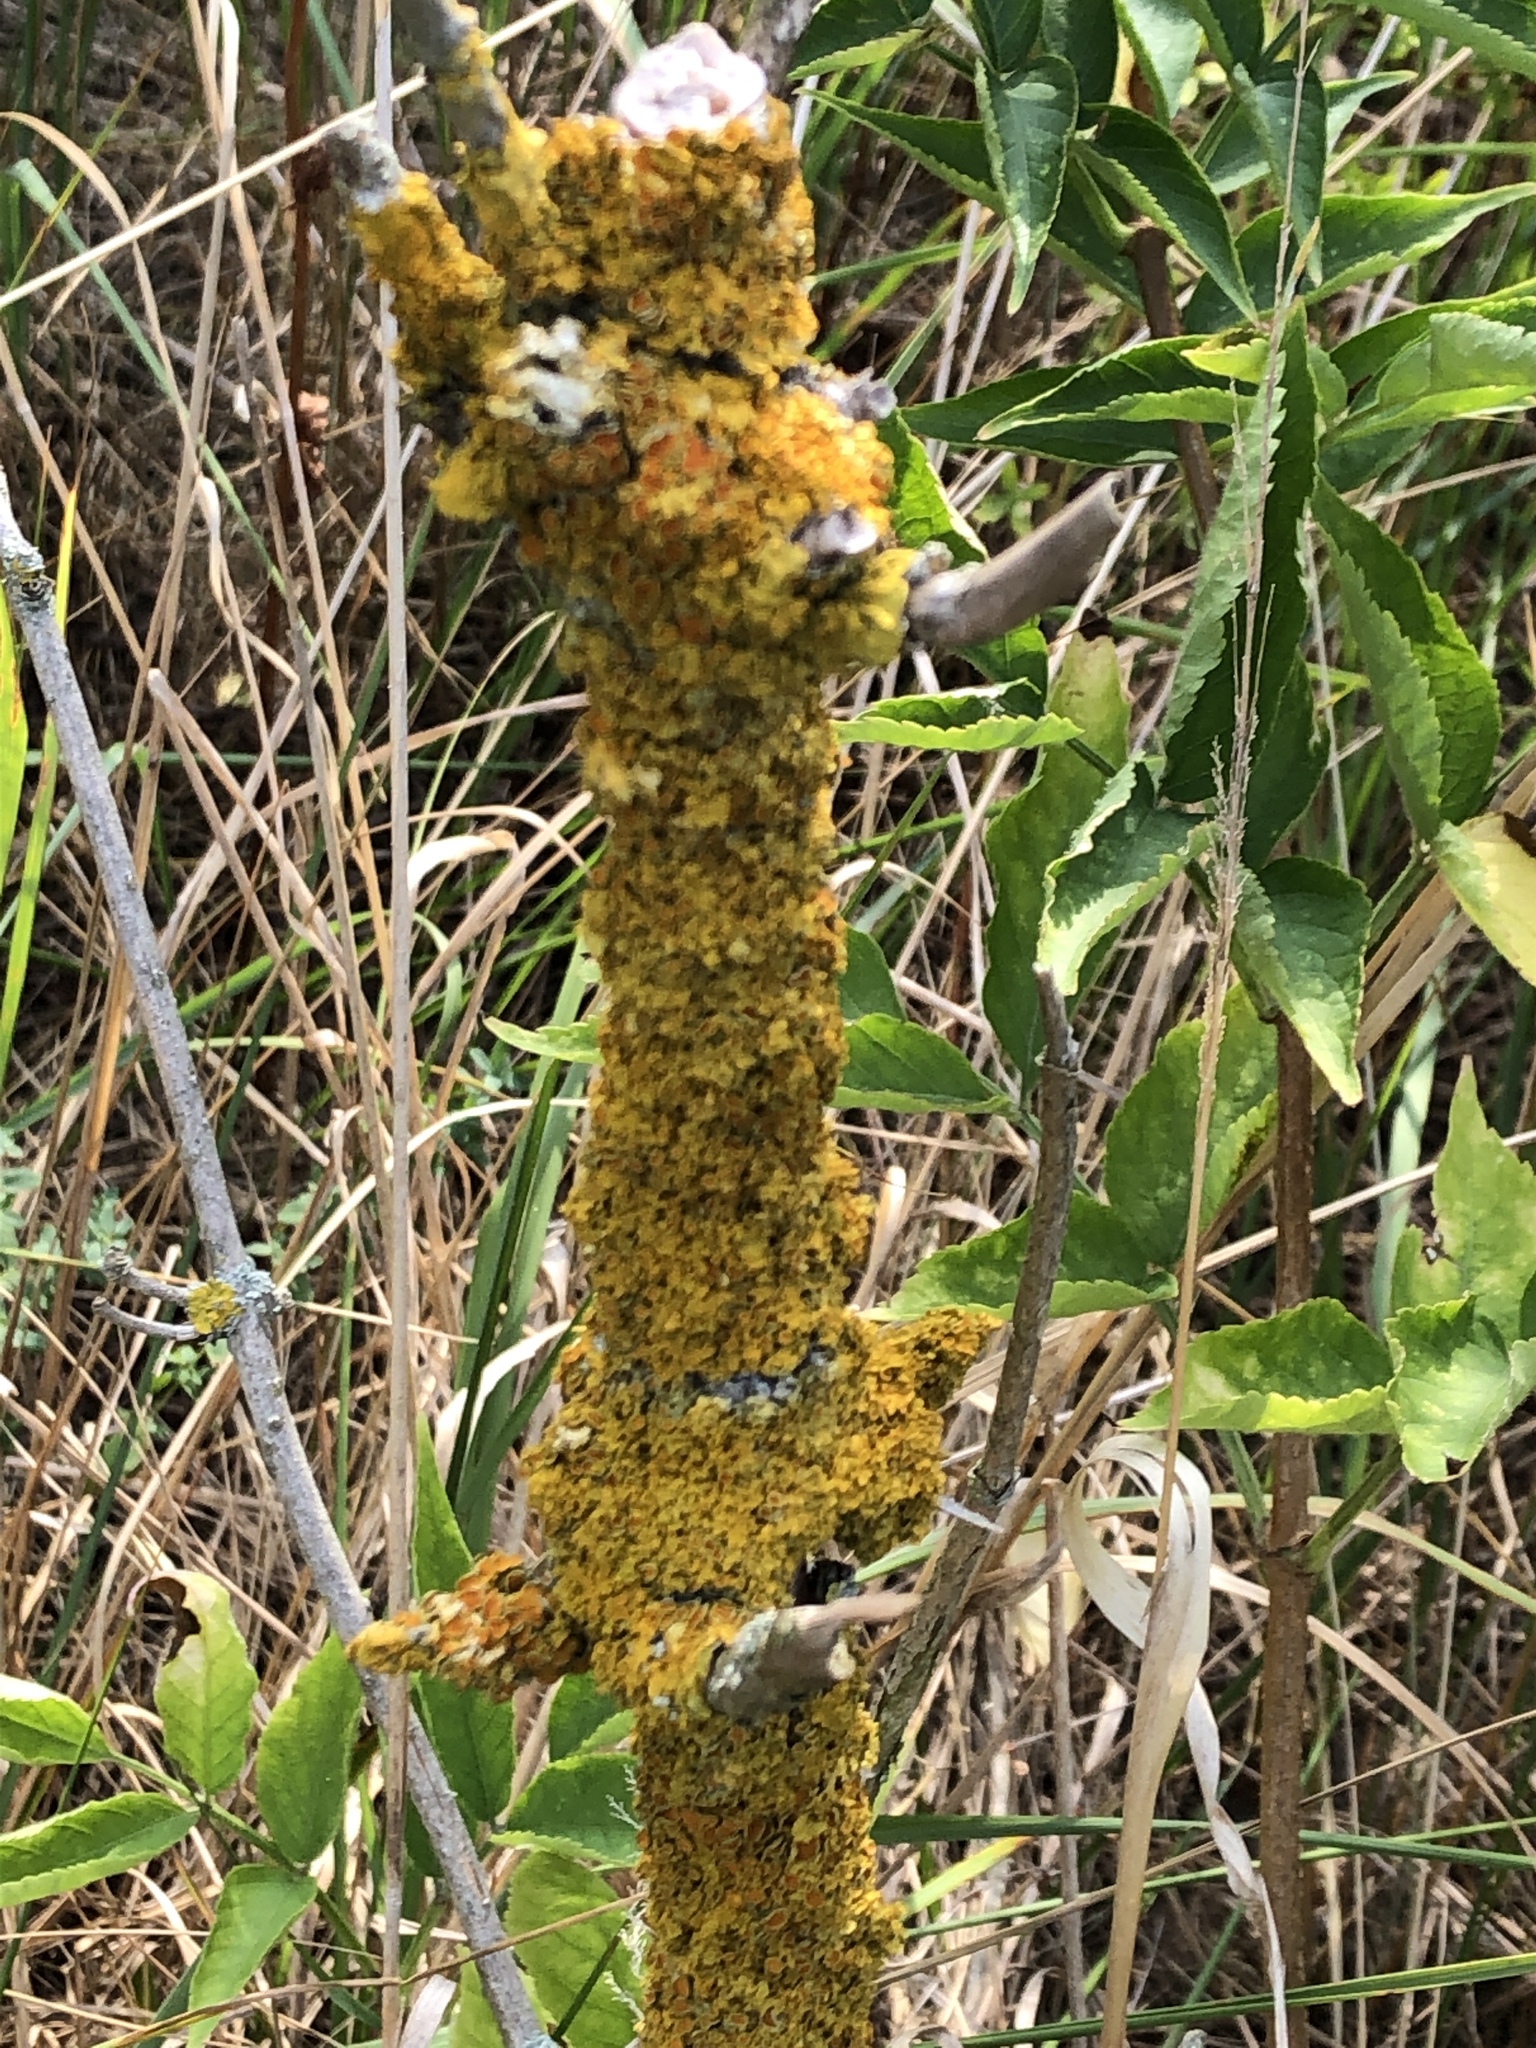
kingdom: Fungi
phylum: Ascomycota
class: Lecanoromycetes
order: Teloschistales
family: Teloschistaceae
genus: Xanthoria
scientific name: Xanthoria parietina
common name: Common orange lichen
